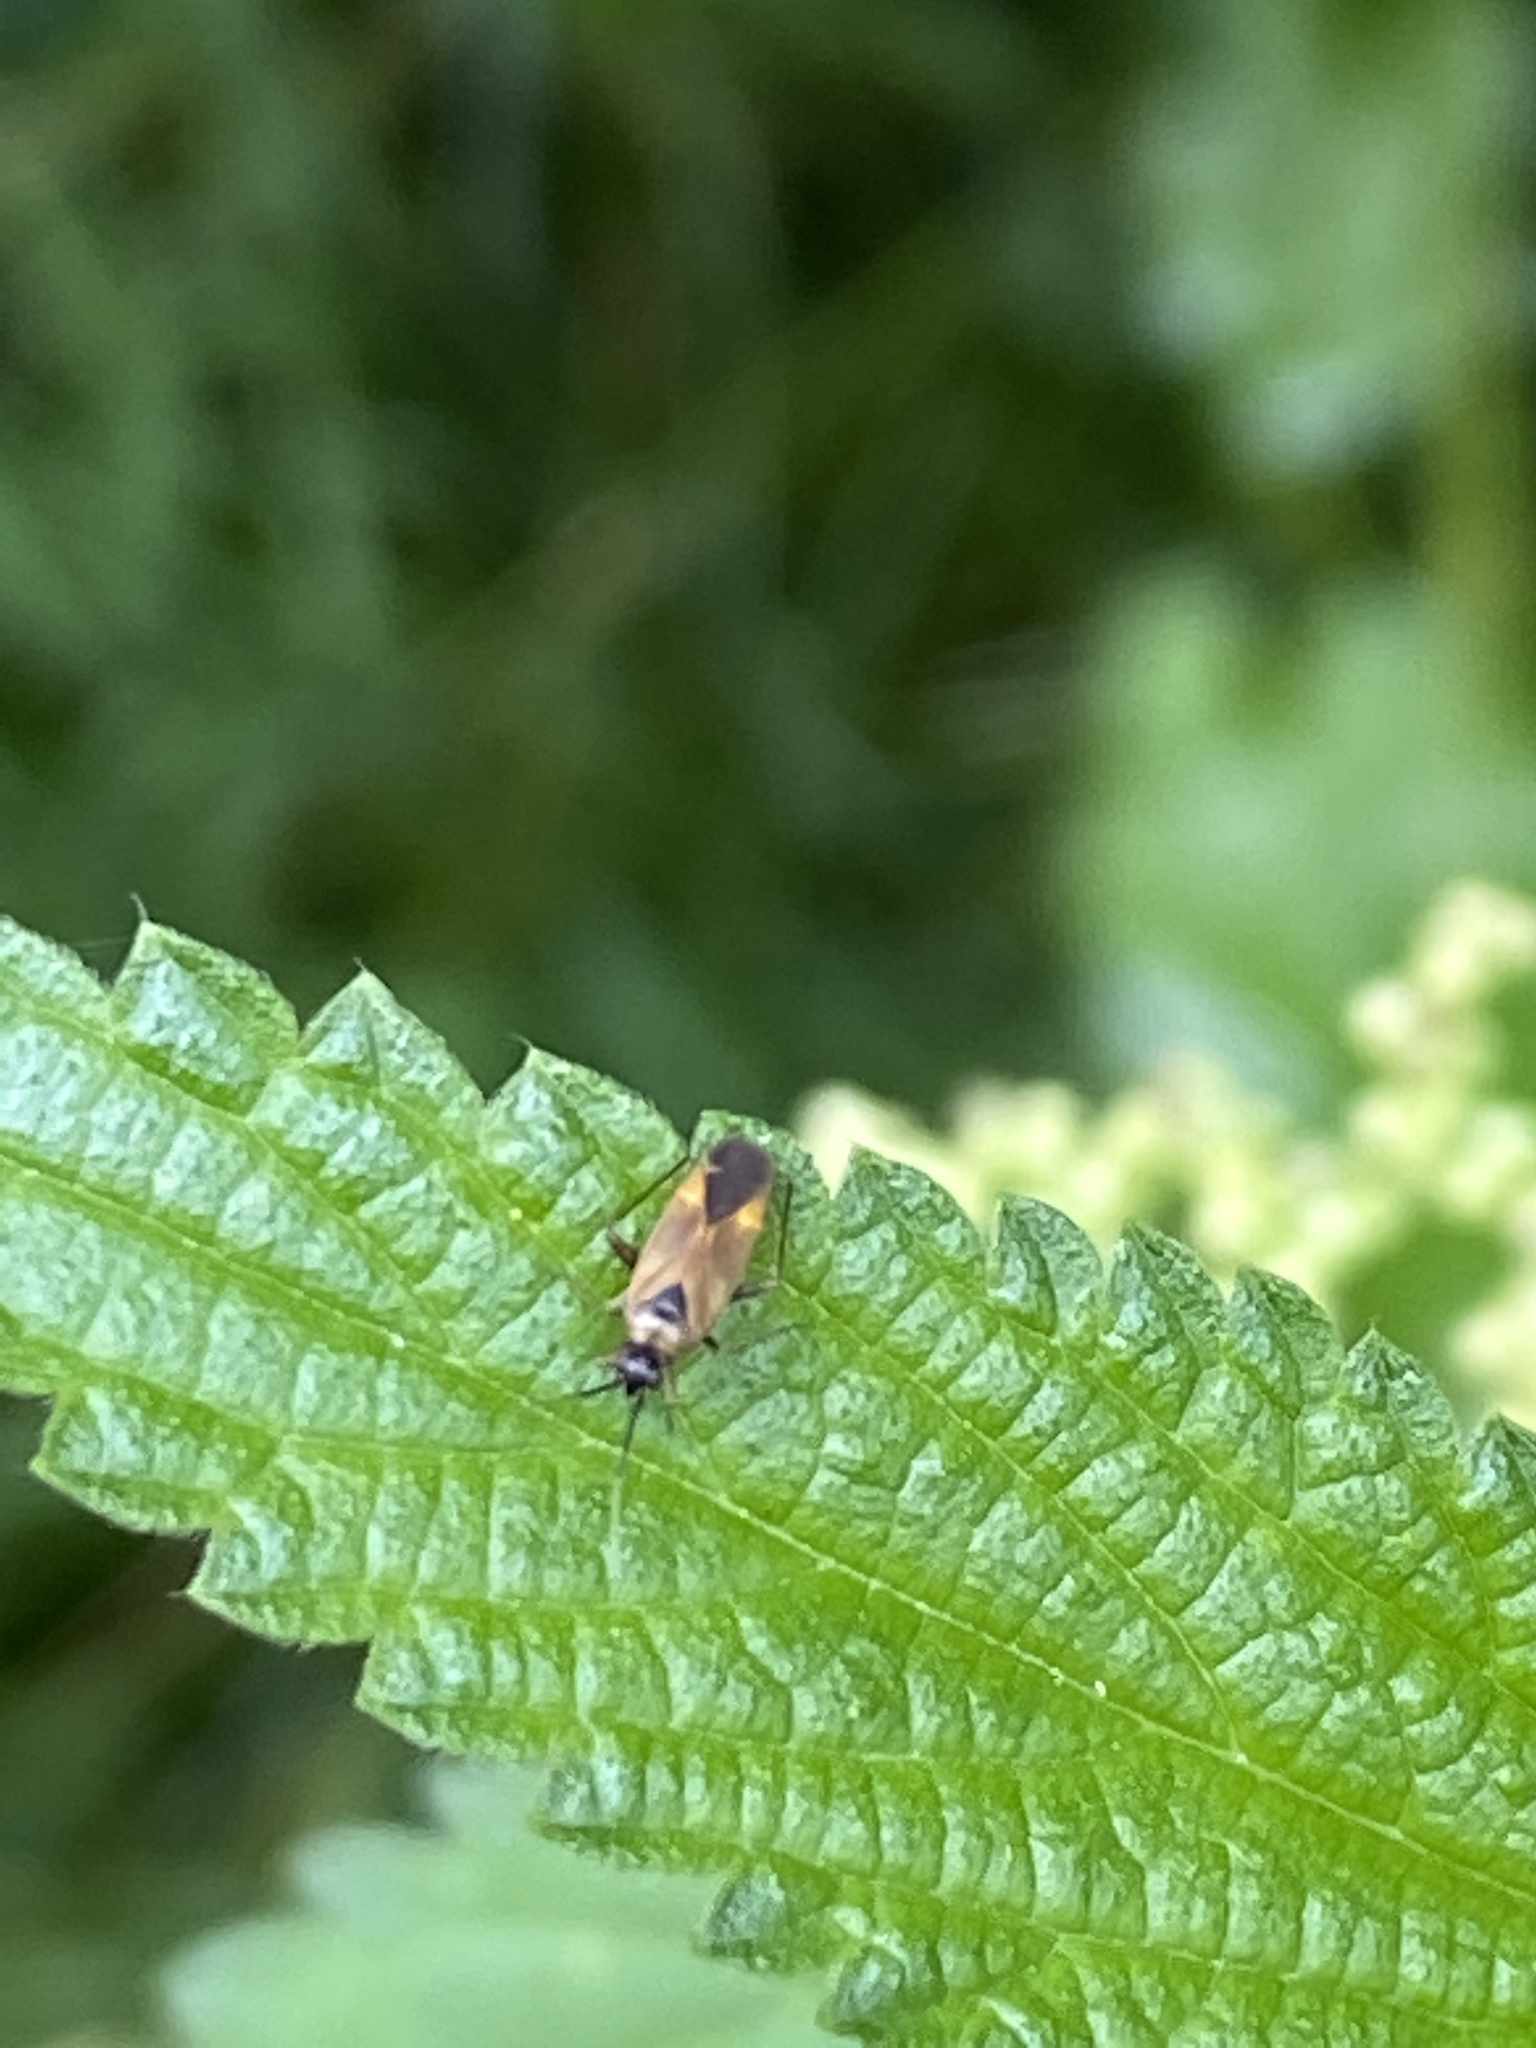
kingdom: Animalia
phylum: Arthropoda
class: Insecta
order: Hemiptera
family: Miridae
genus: Plagiognathus
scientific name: Plagiognathus arbustorum
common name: Plant bug
